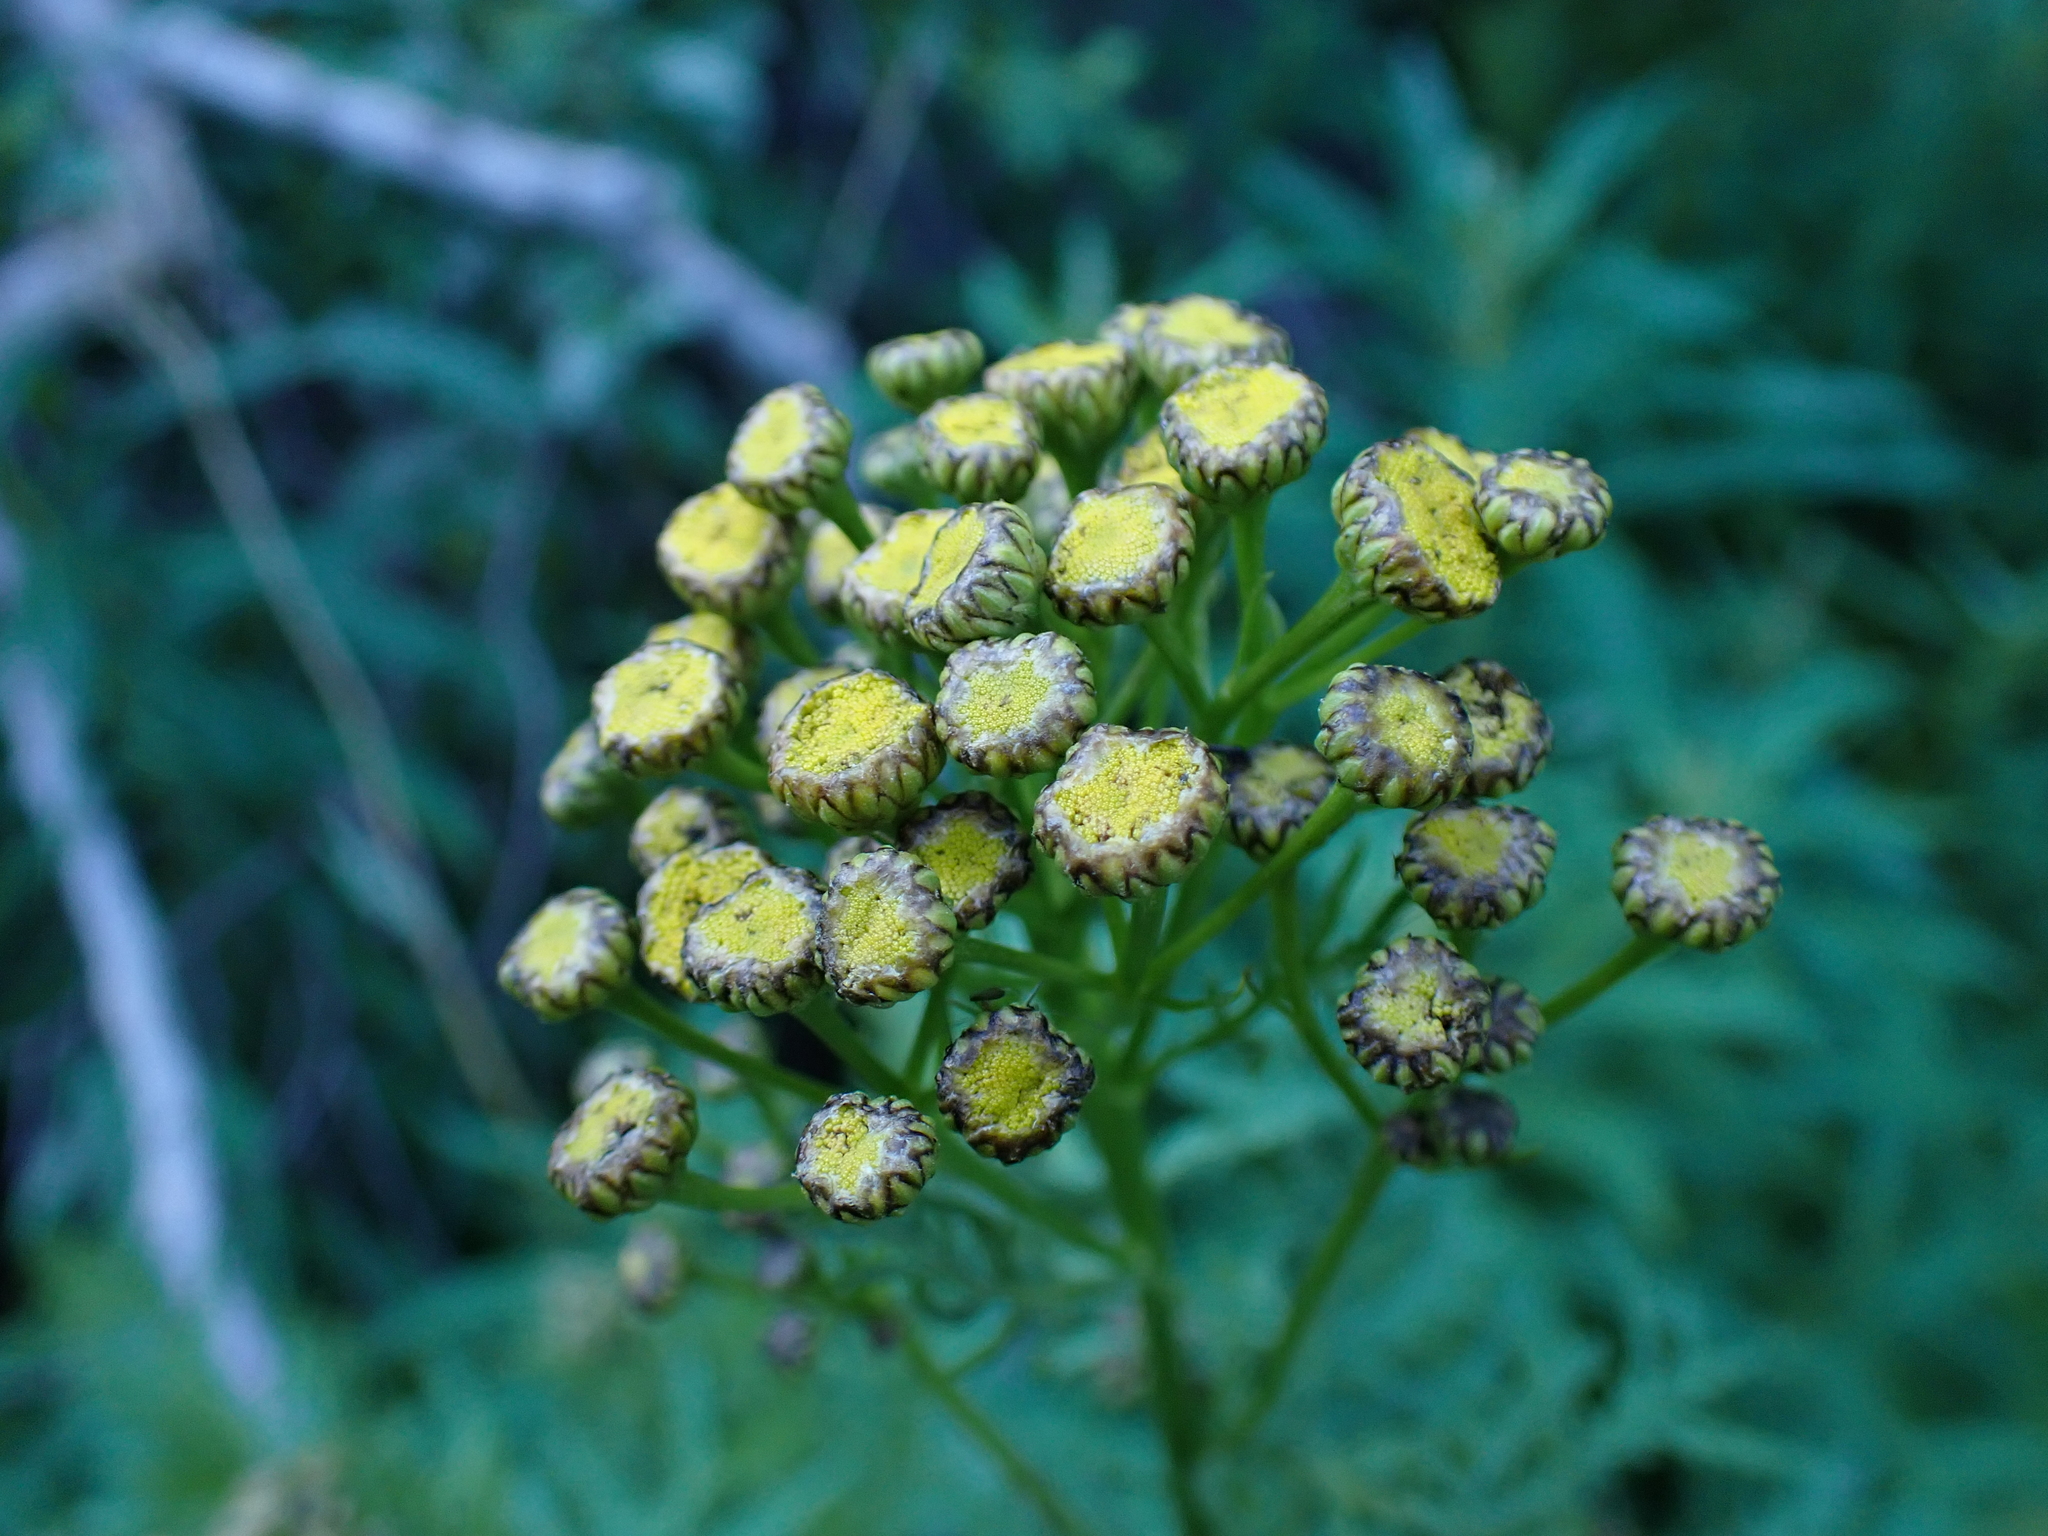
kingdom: Plantae
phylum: Tracheophyta
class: Magnoliopsida
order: Asterales
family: Asteraceae
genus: Tanacetum
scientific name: Tanacetum vulgare
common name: Common tansy
